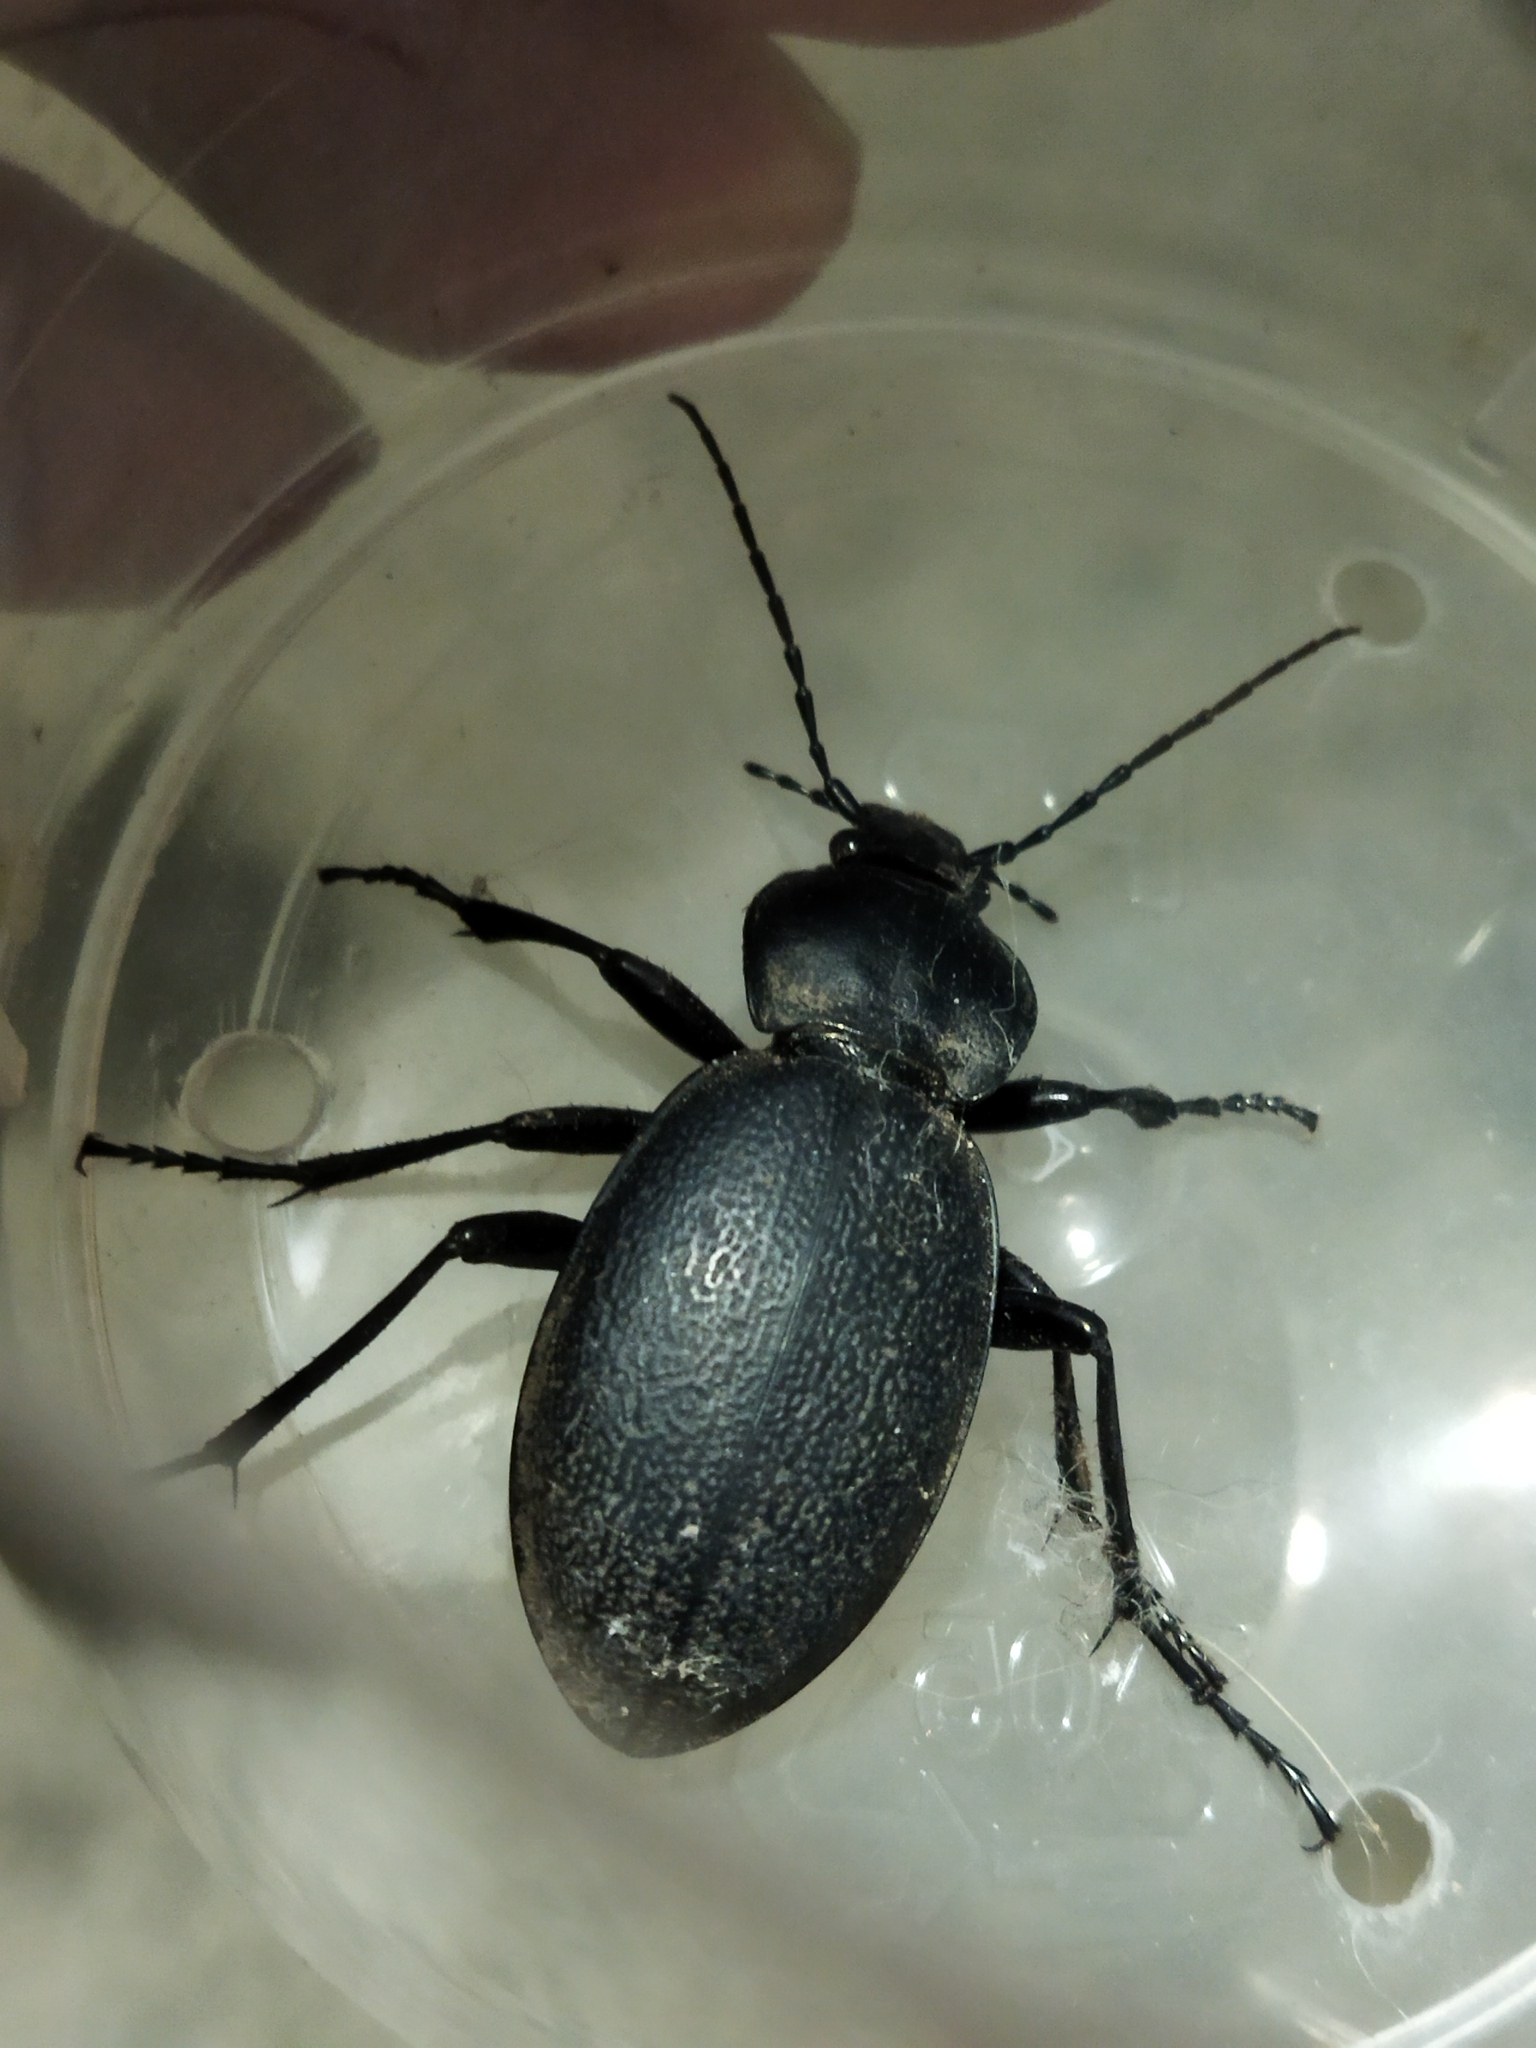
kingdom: Animalia
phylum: Arthropoda
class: Insecta
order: Coleoptera
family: Carabidae
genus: Carabus
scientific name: Carabus coriaceus
